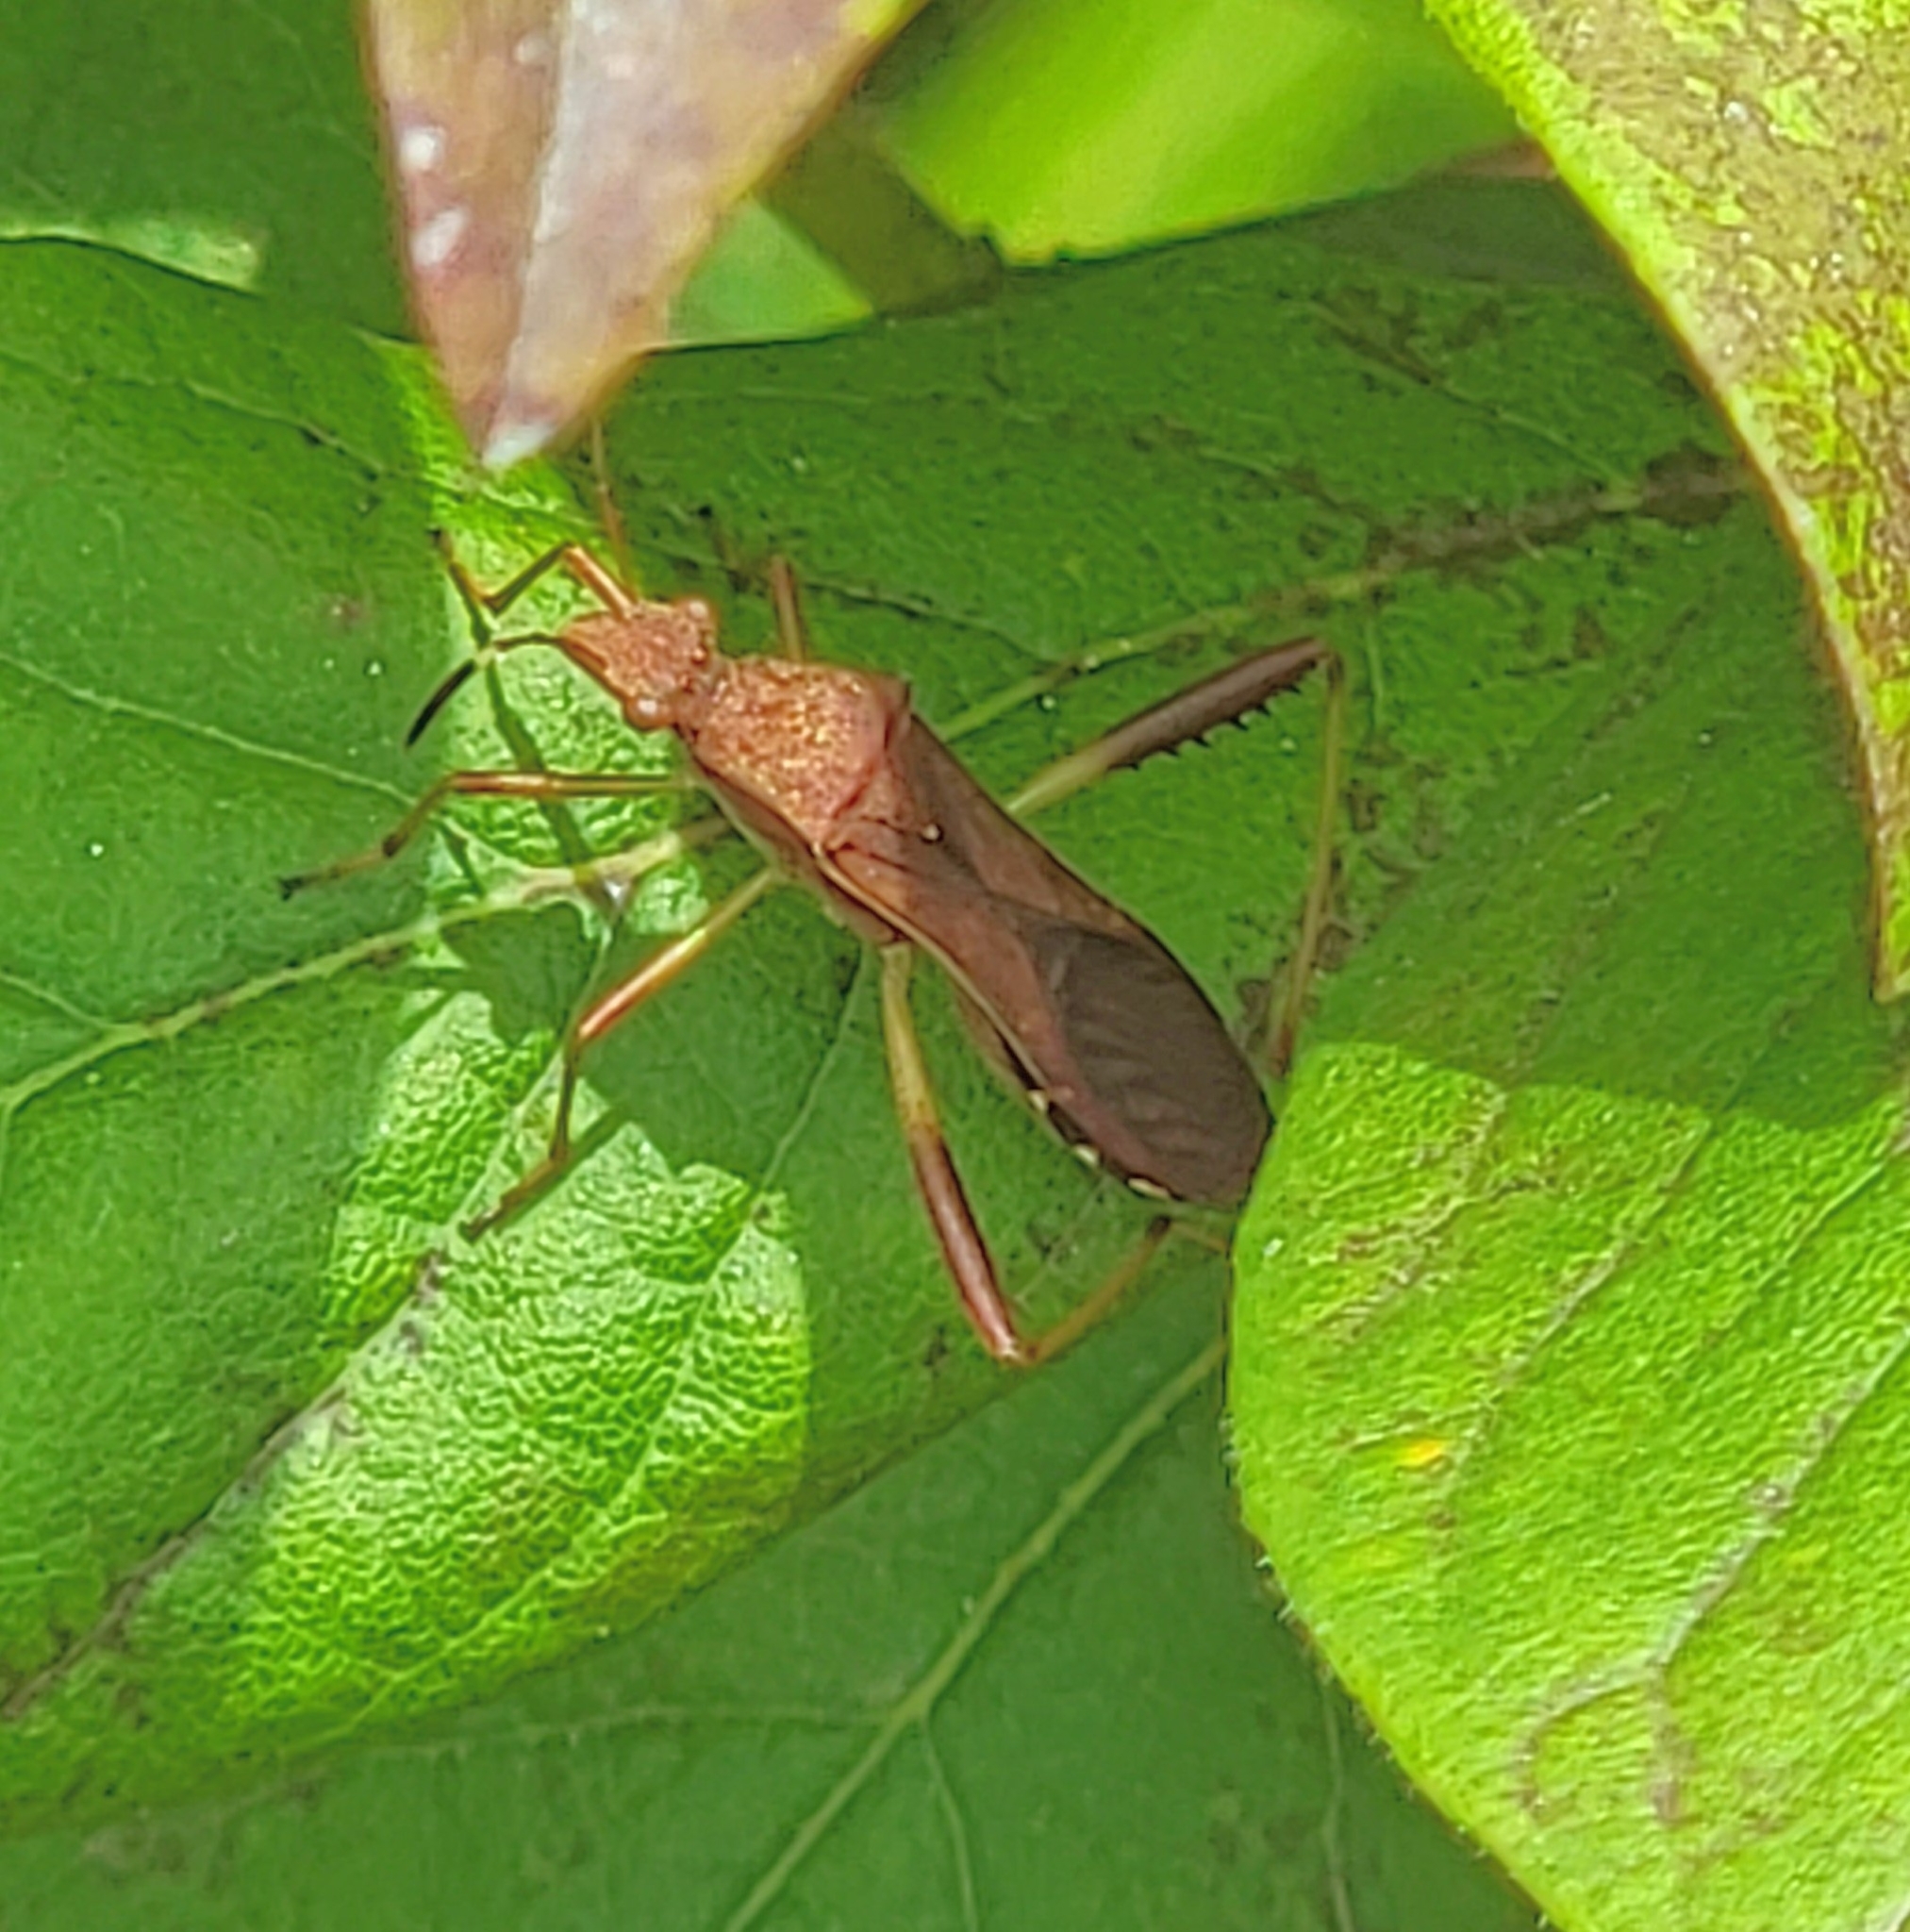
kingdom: Animalia
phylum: Arthropoda
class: Insecta
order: Hemiptera
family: Alydidae
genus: Megalotomus
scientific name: Megalotomus quinquespinosus
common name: Lupine bug
